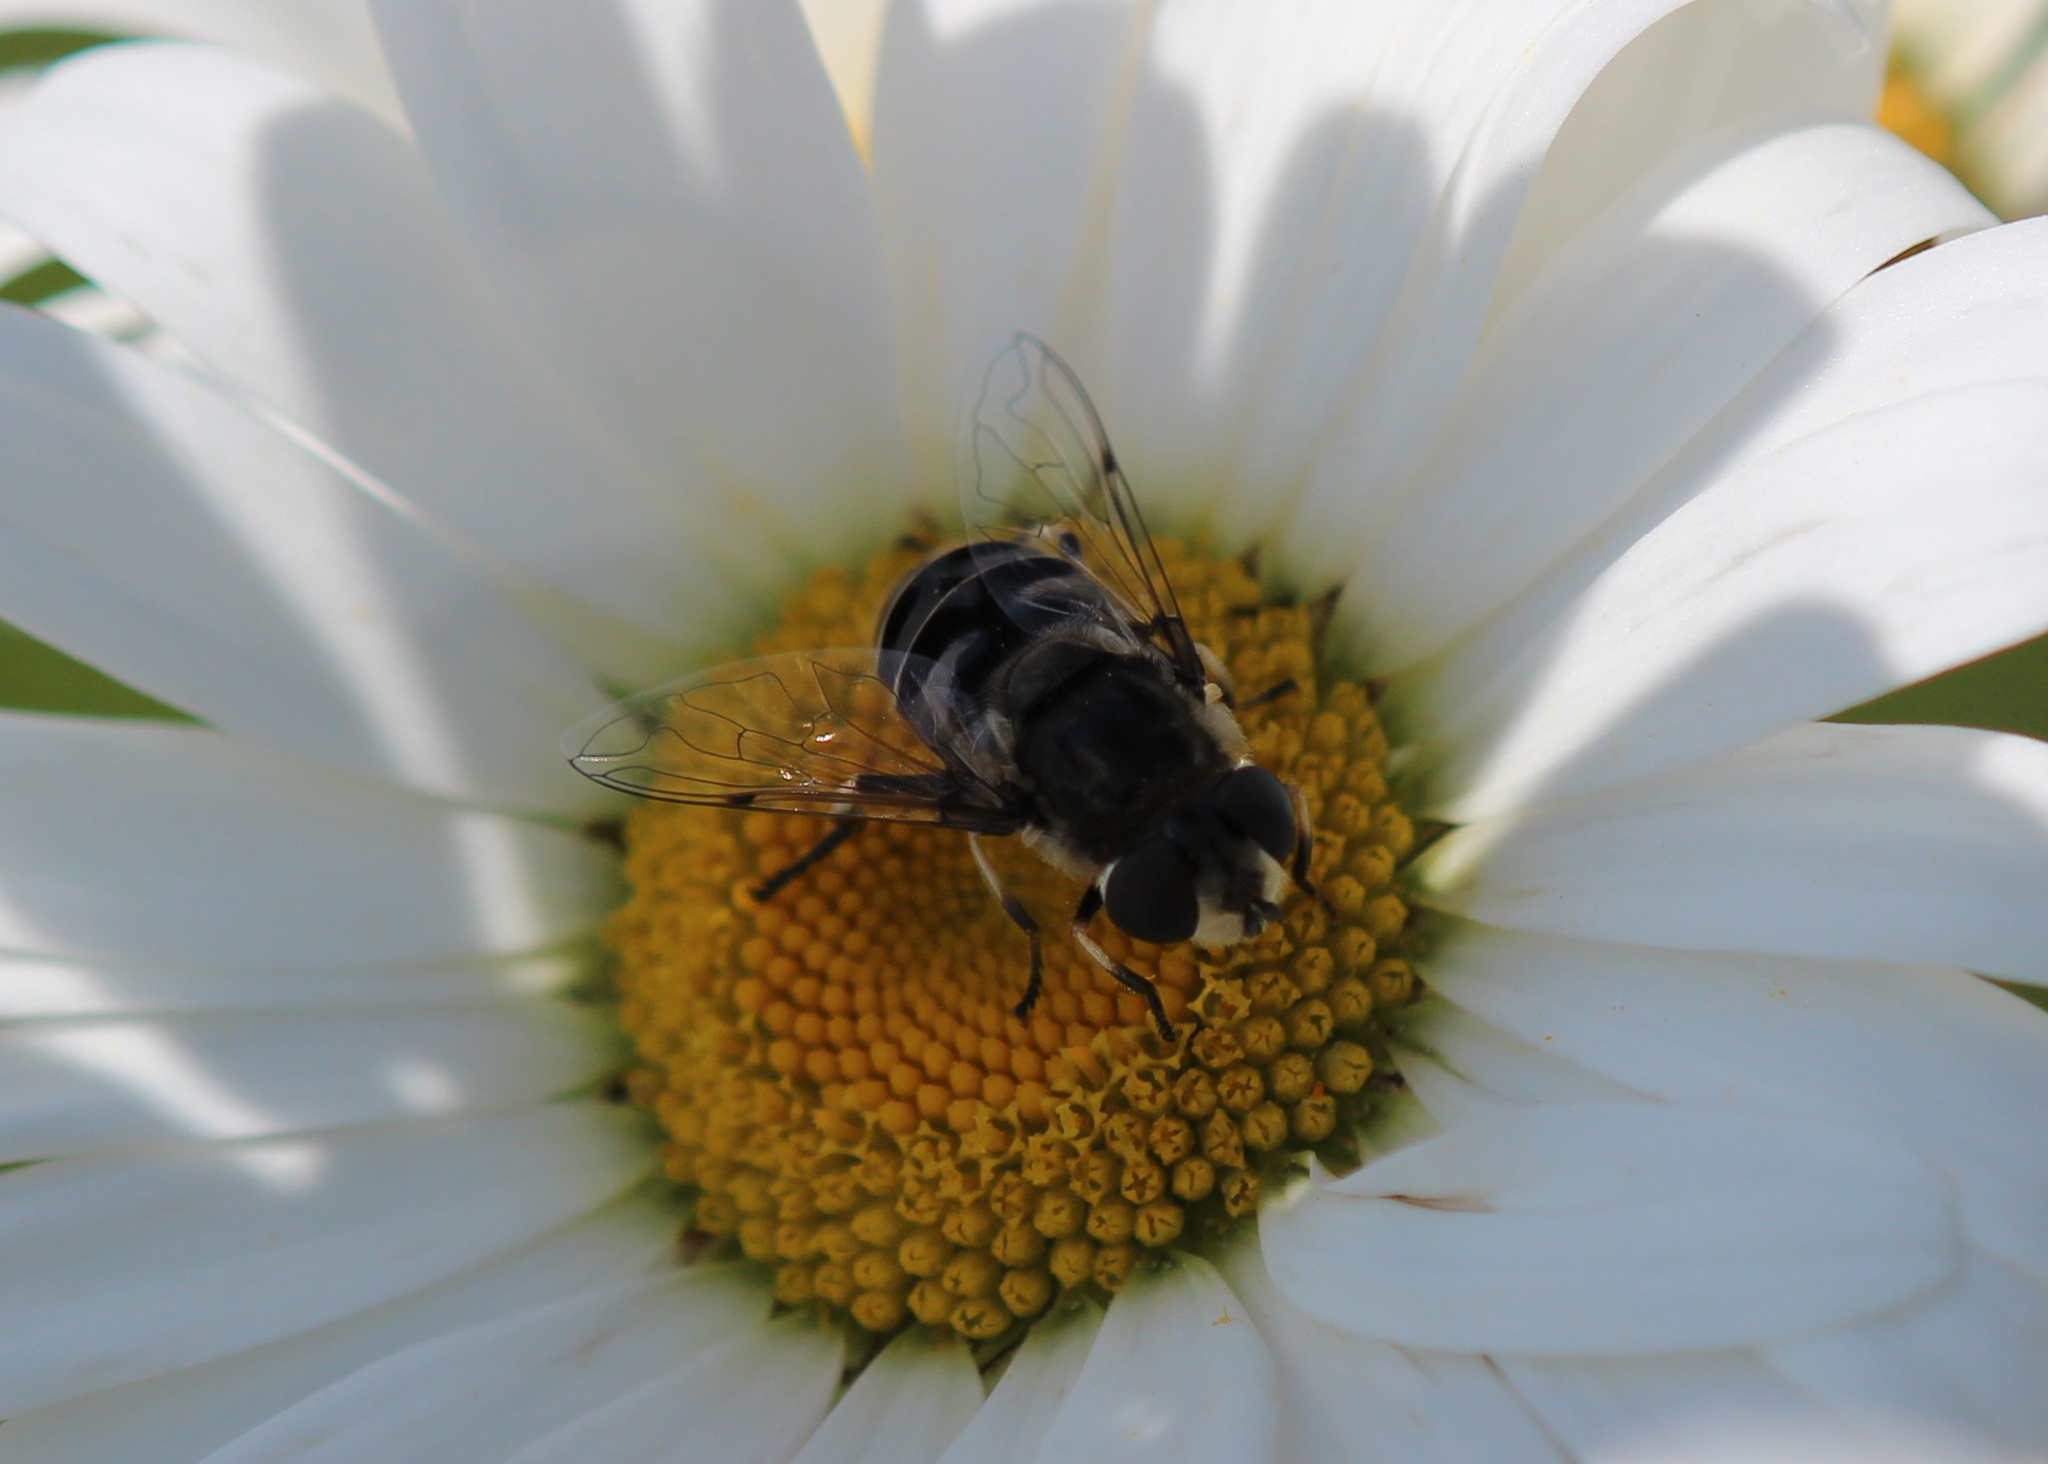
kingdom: Animalia
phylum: Arthropoda
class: Insecta
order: Diptera
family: Syrphidae
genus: Eristalis
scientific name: Eristalis dimidiata
